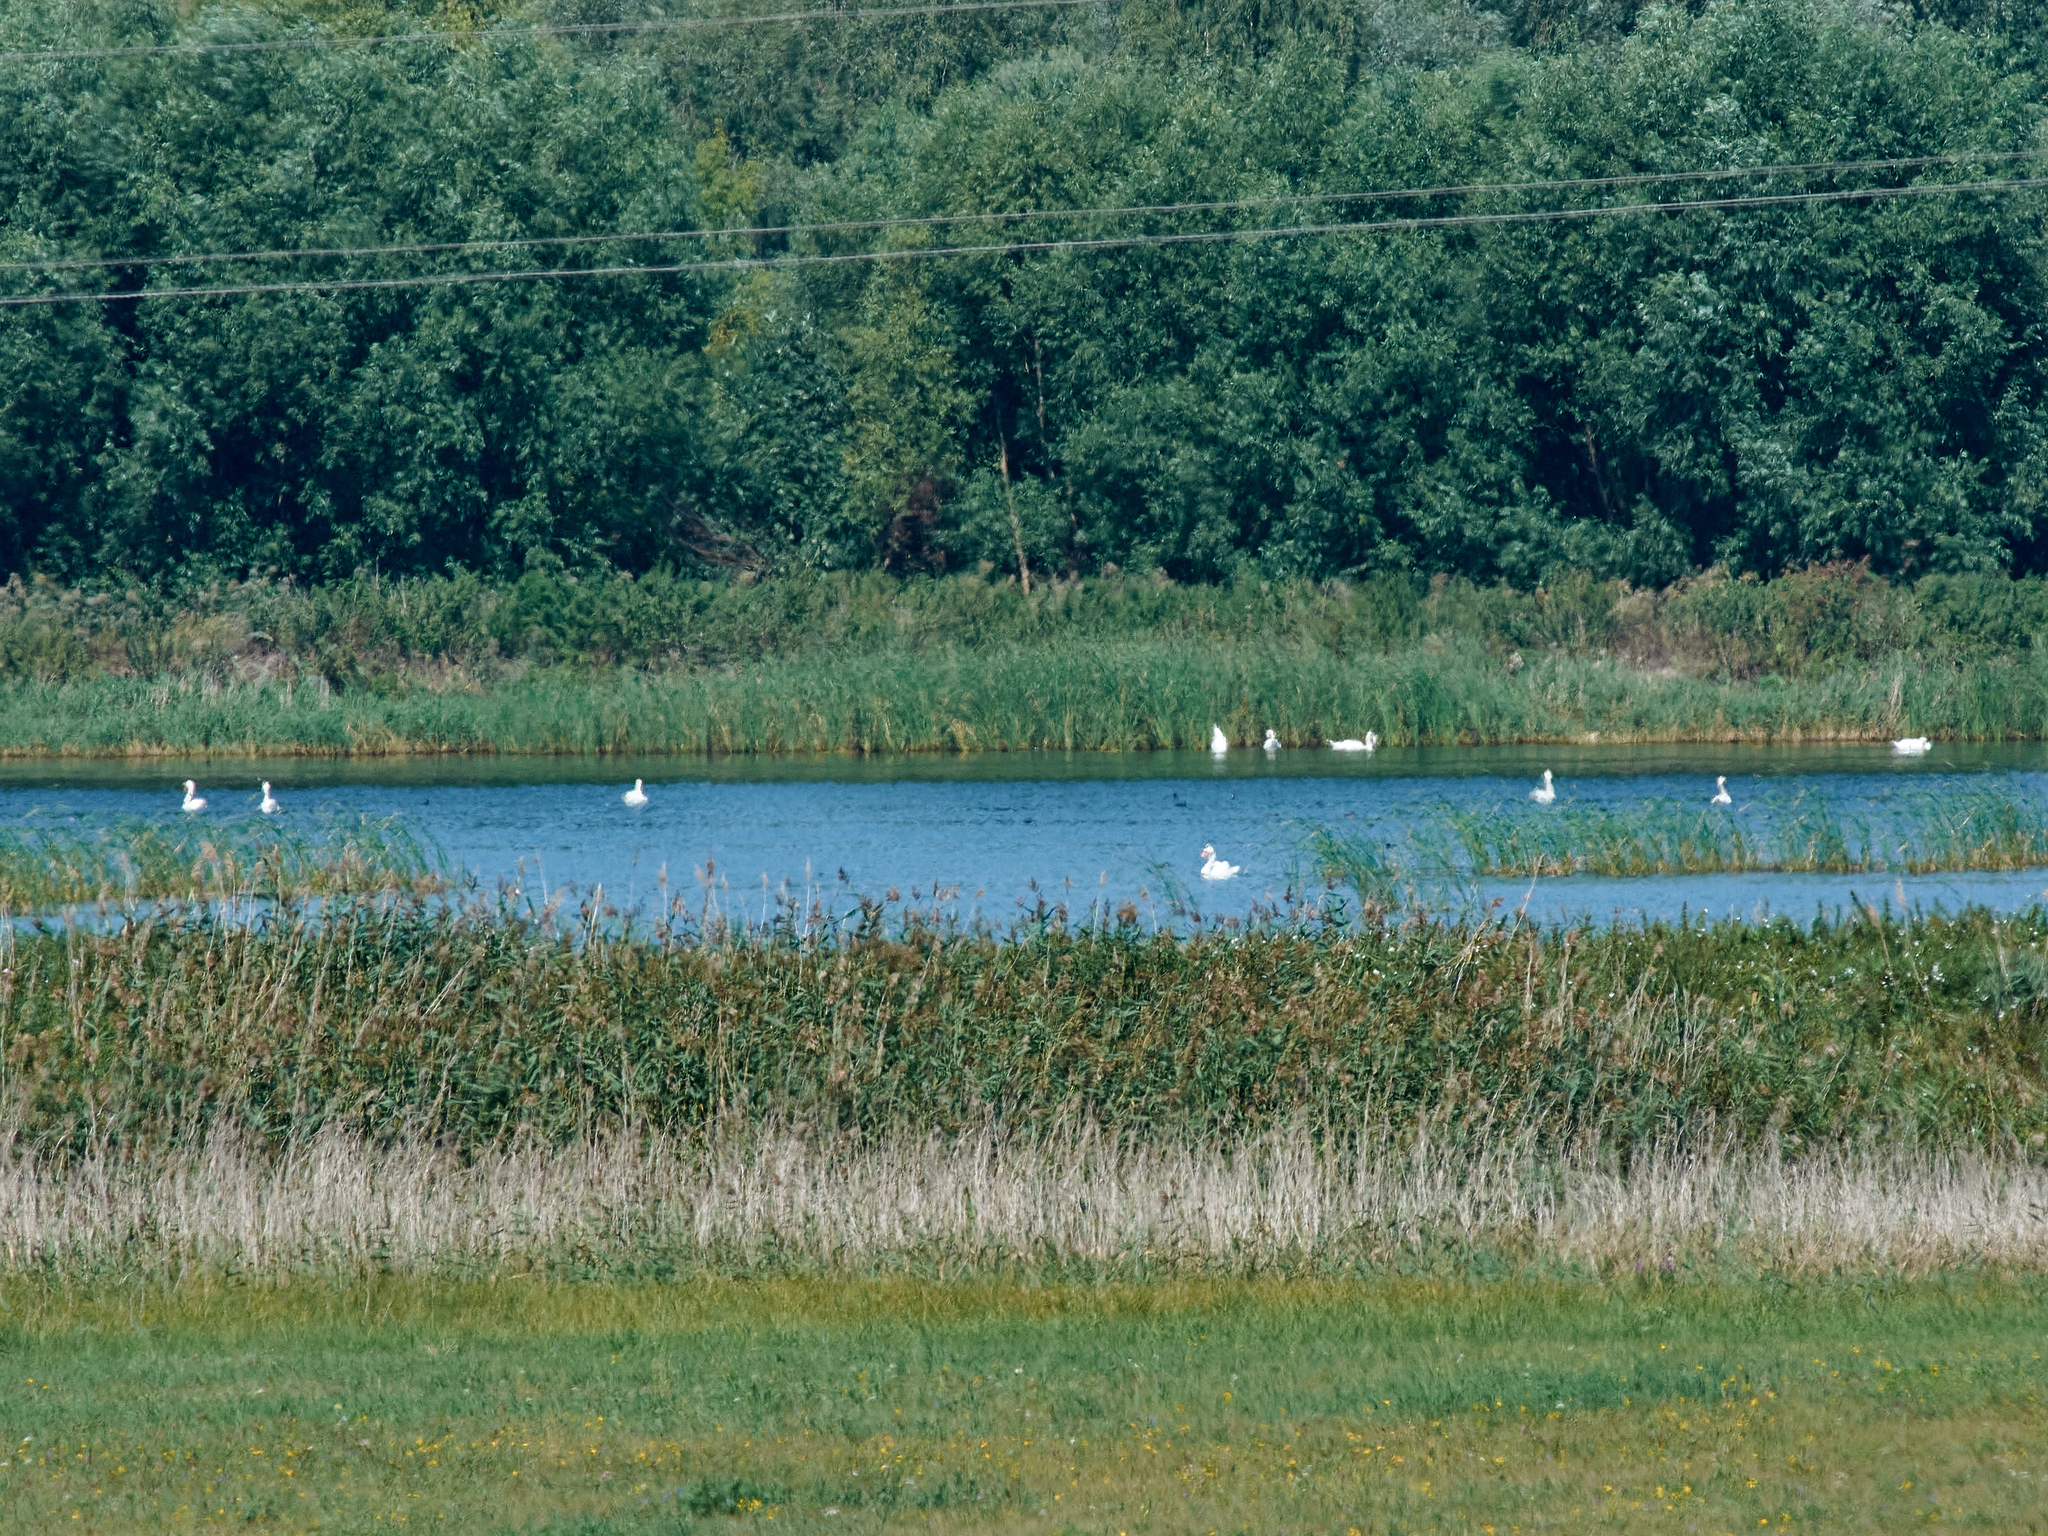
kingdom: Animalia
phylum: Chordata
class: Aves
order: Anseriformes
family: Anatidae
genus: Cygnus
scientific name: Cygnus olor
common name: Mute swan
